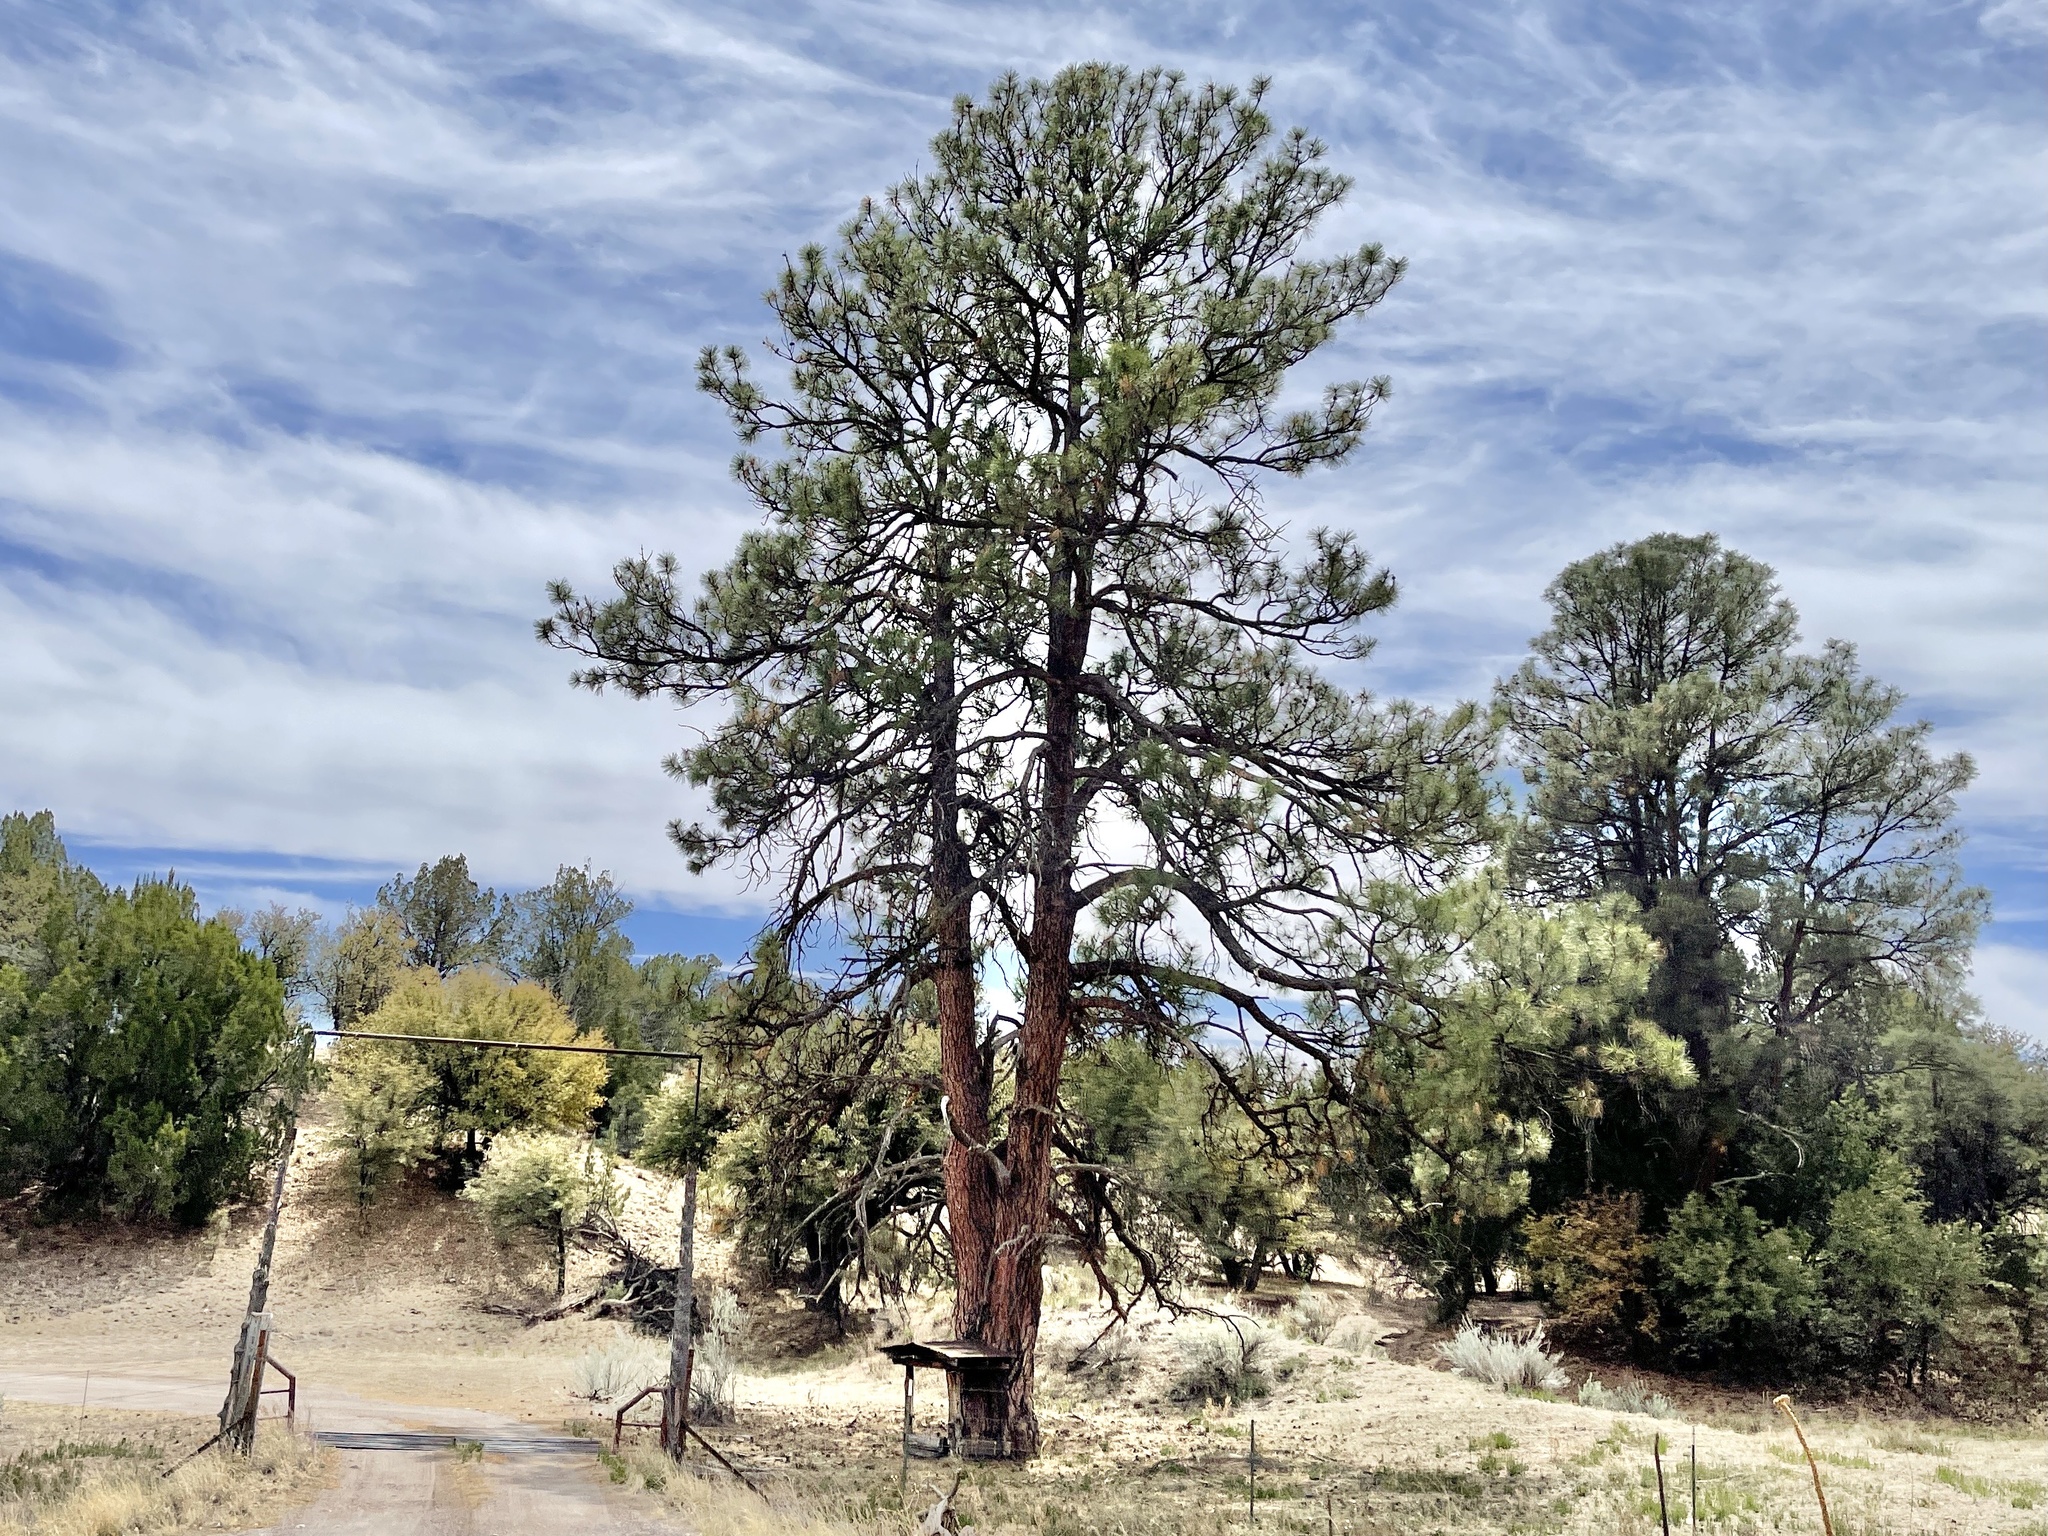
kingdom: Plantae
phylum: Tracheophyta
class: Pinopsida
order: Pinales
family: Pinaceae
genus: Pinus
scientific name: Pinus ponderosa
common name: Western yellow-pine
